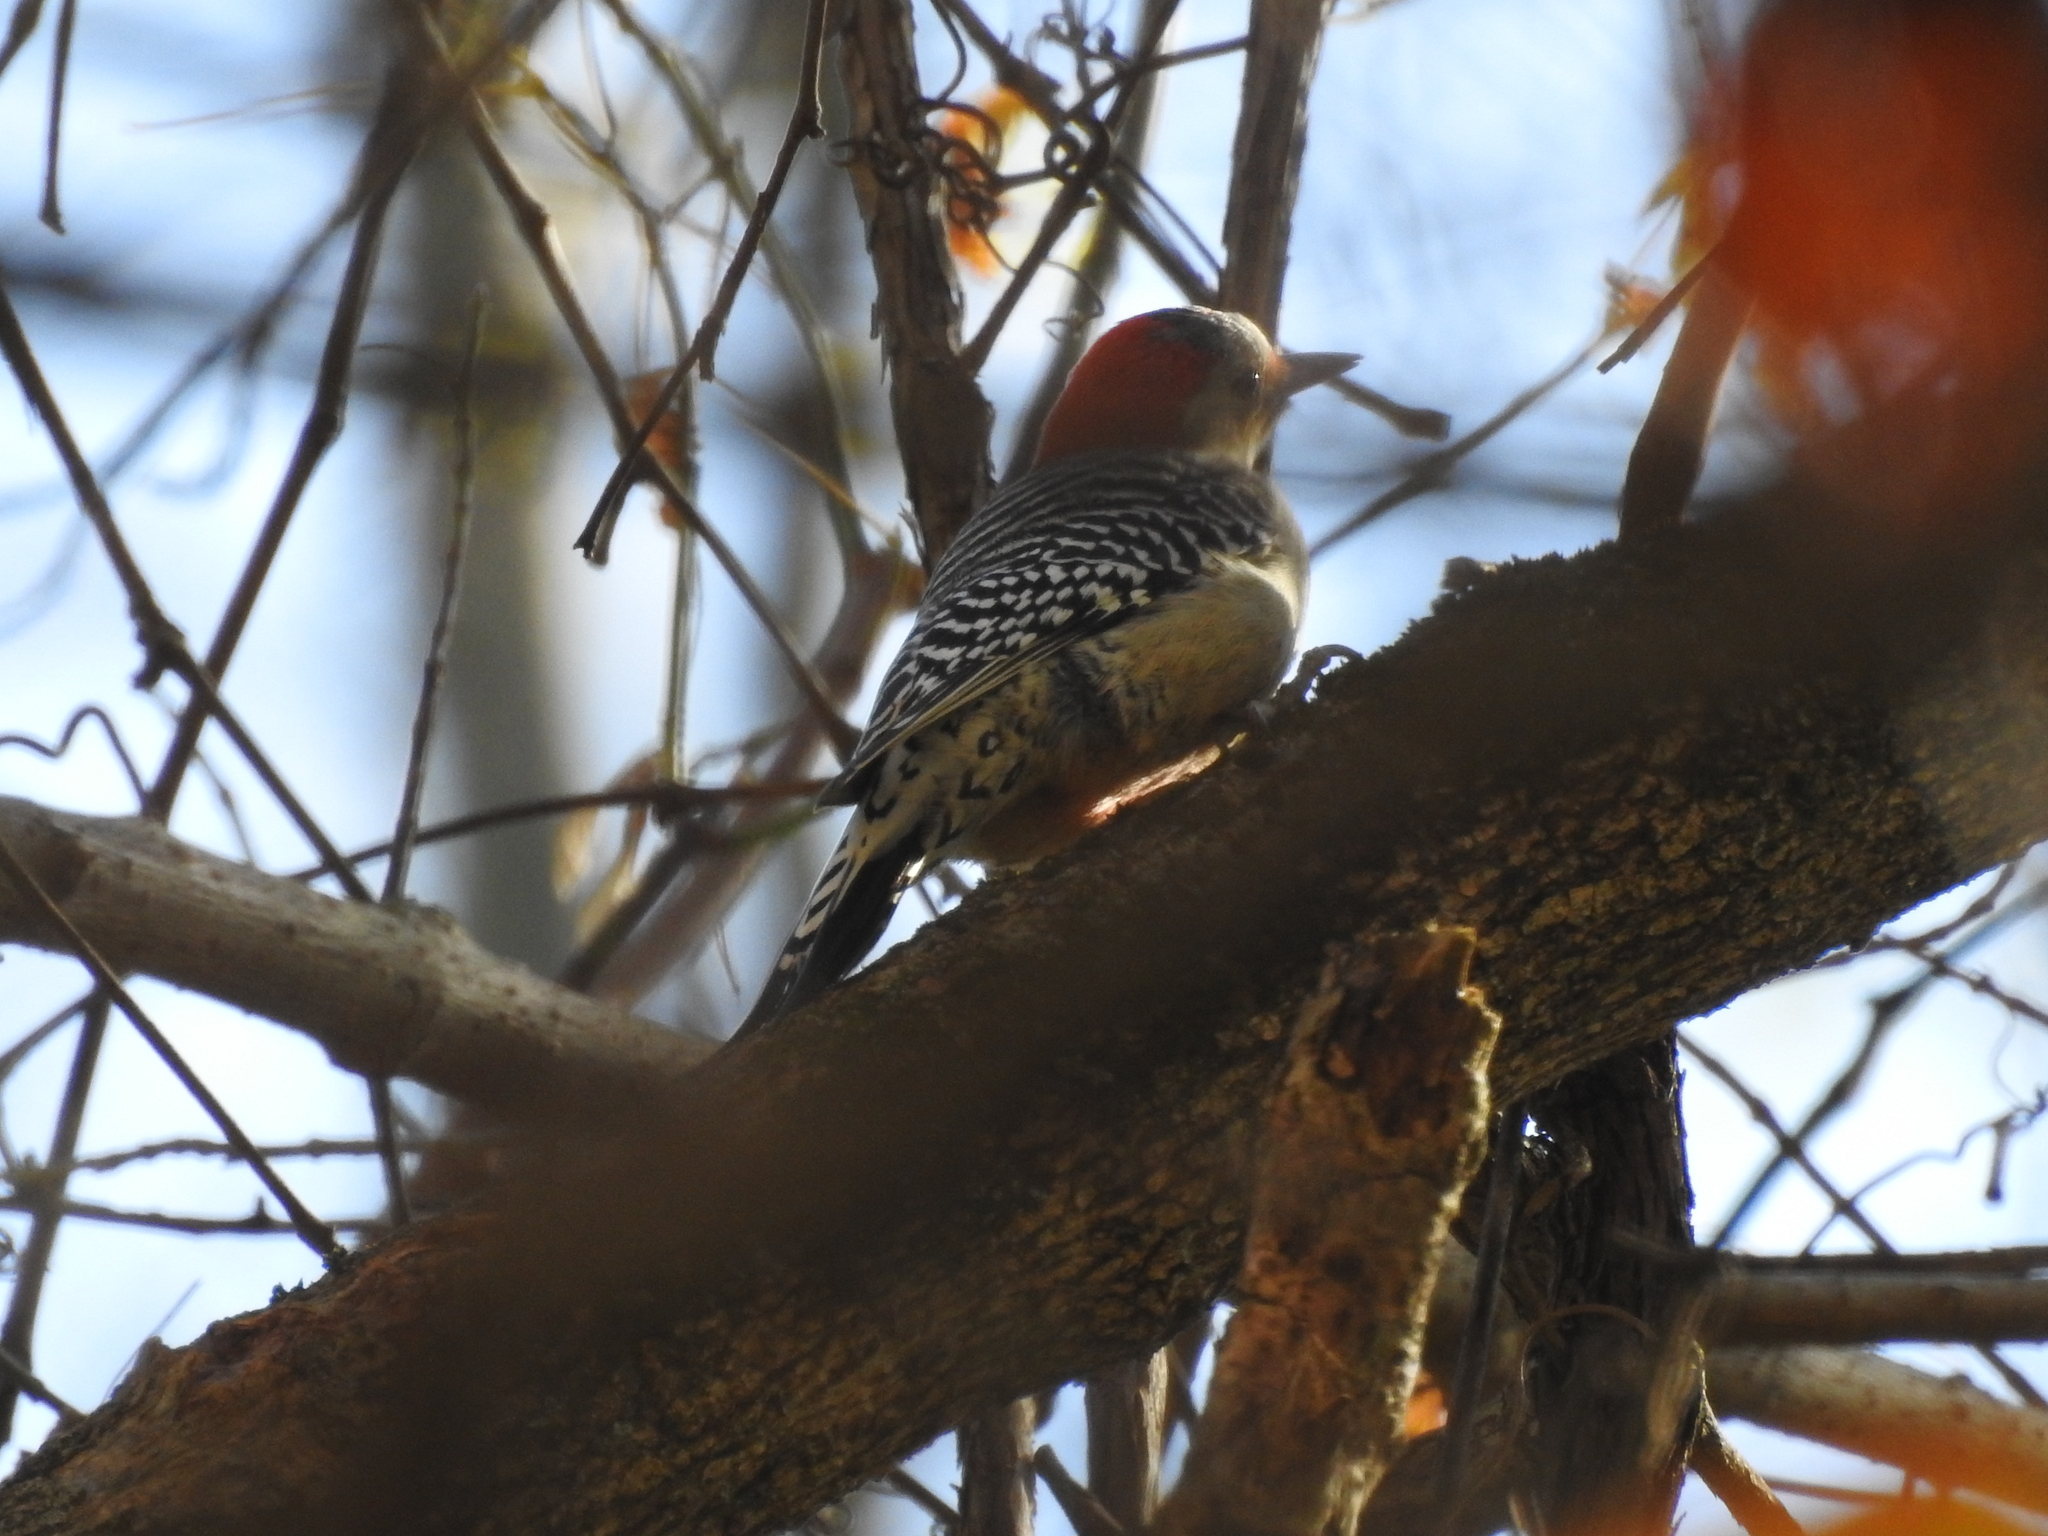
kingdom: Animalia
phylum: Chordata
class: Aves
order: Piciformes
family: Picidae
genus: Melanerpes
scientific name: Melanerpes carolinus
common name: Red-bellied woodpecker
